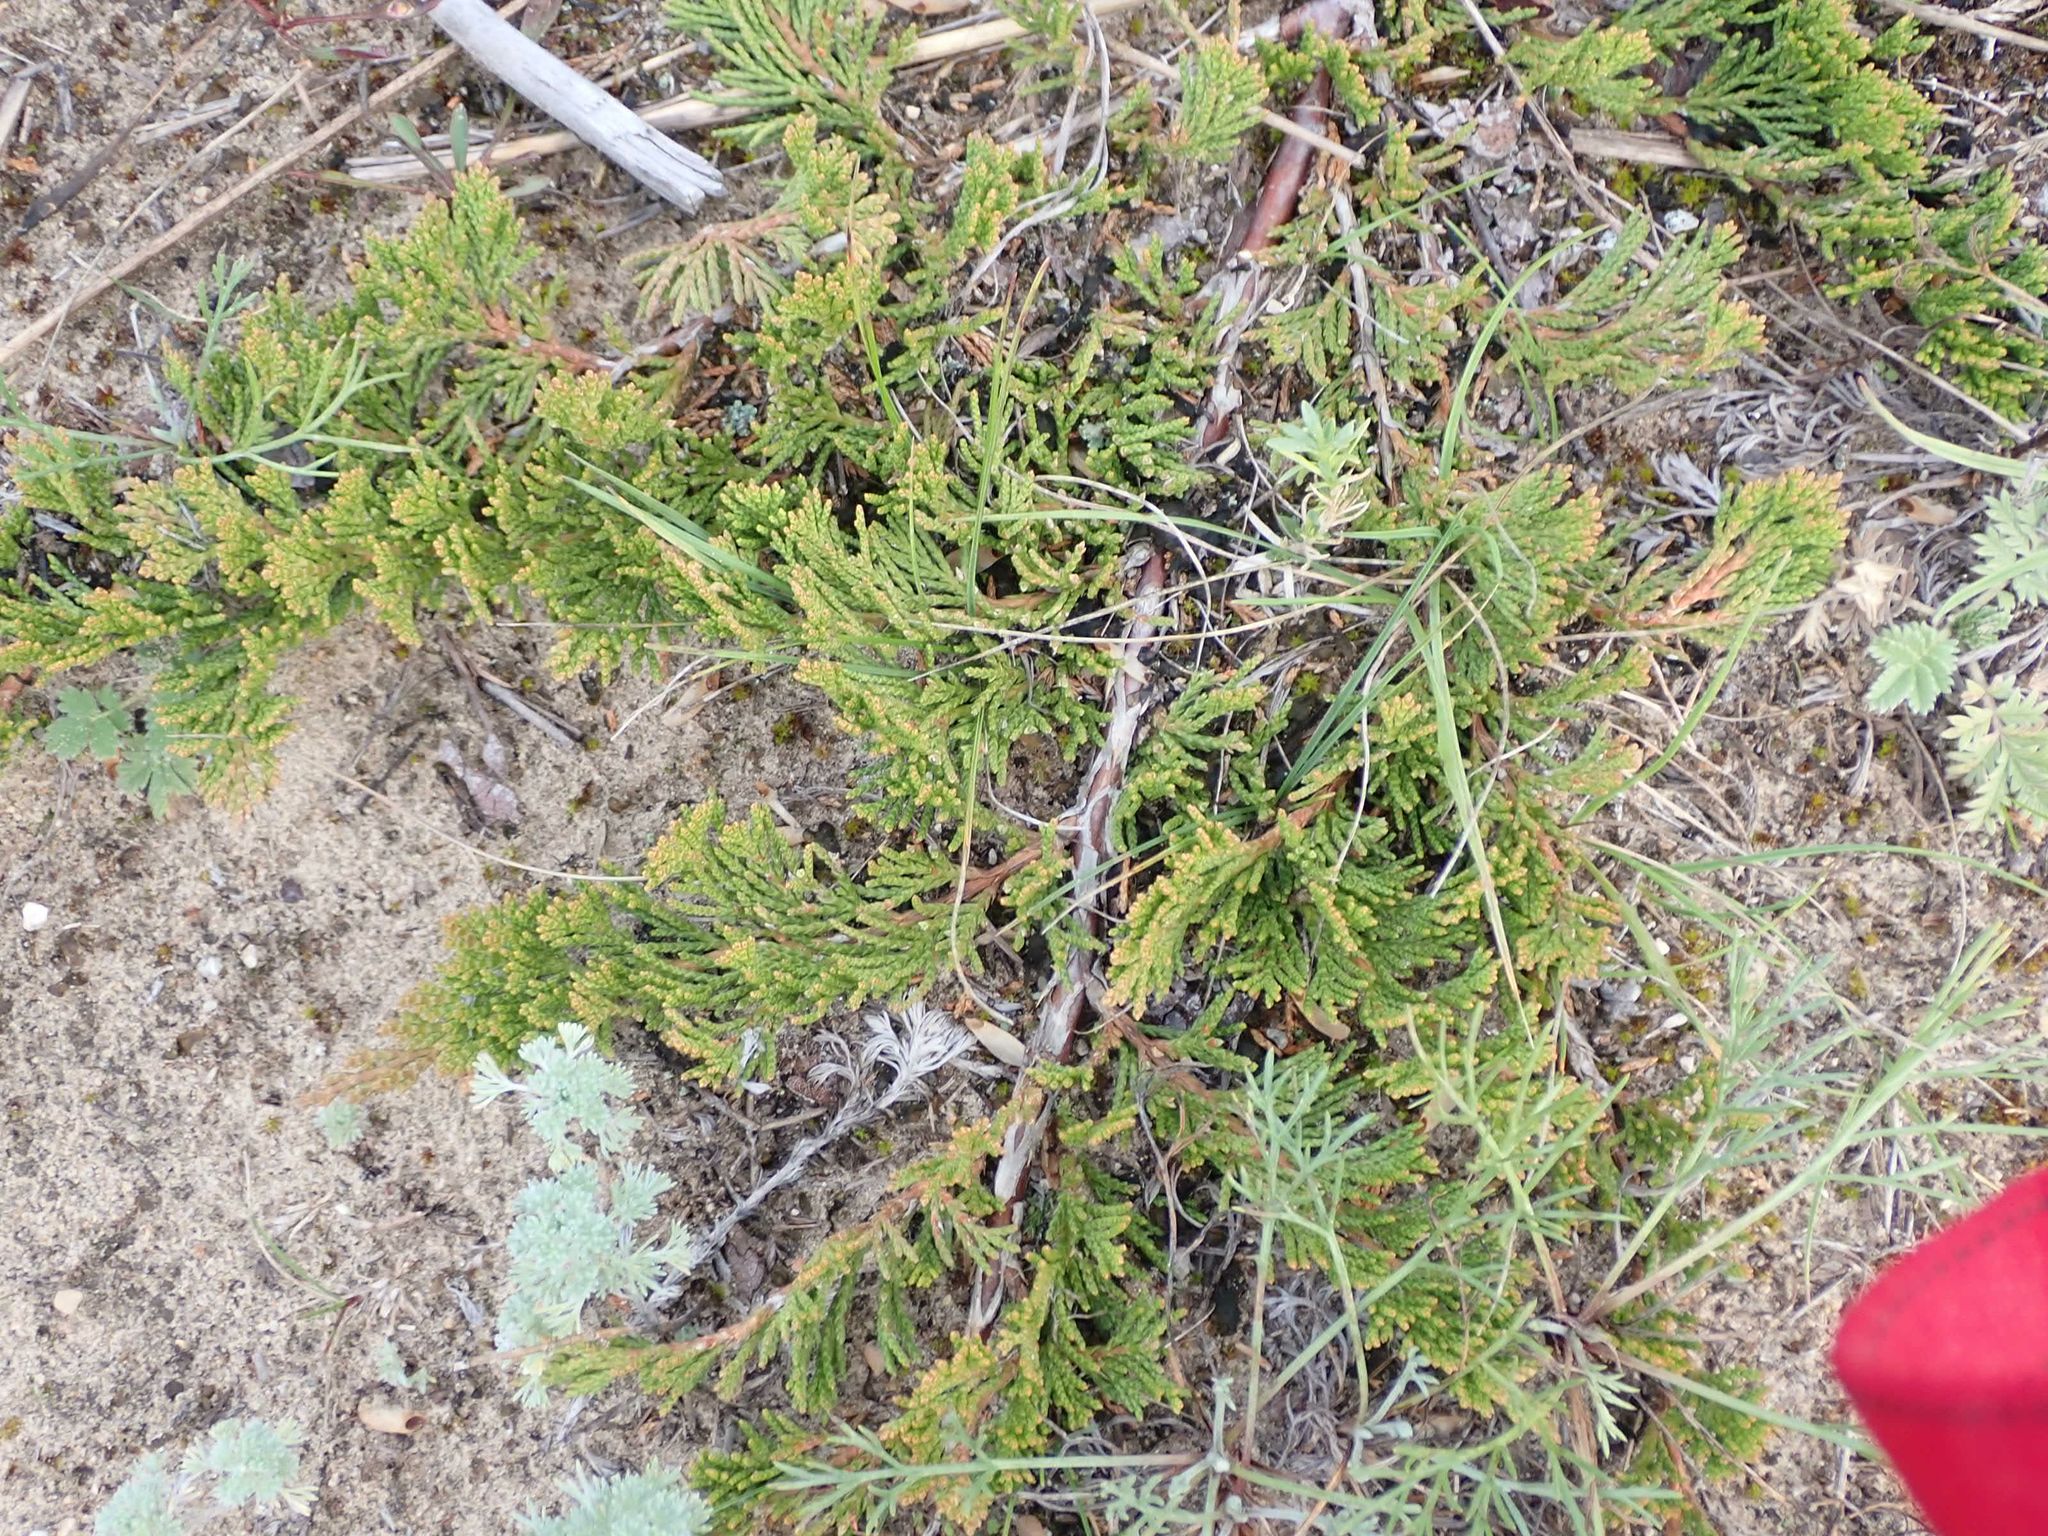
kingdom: Plantae
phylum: Tracheophyta
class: Pinopsida
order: Pinales
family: Cupressaceae
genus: Juniperus
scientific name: Juniperus horizontalis
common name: Creeping juniper
